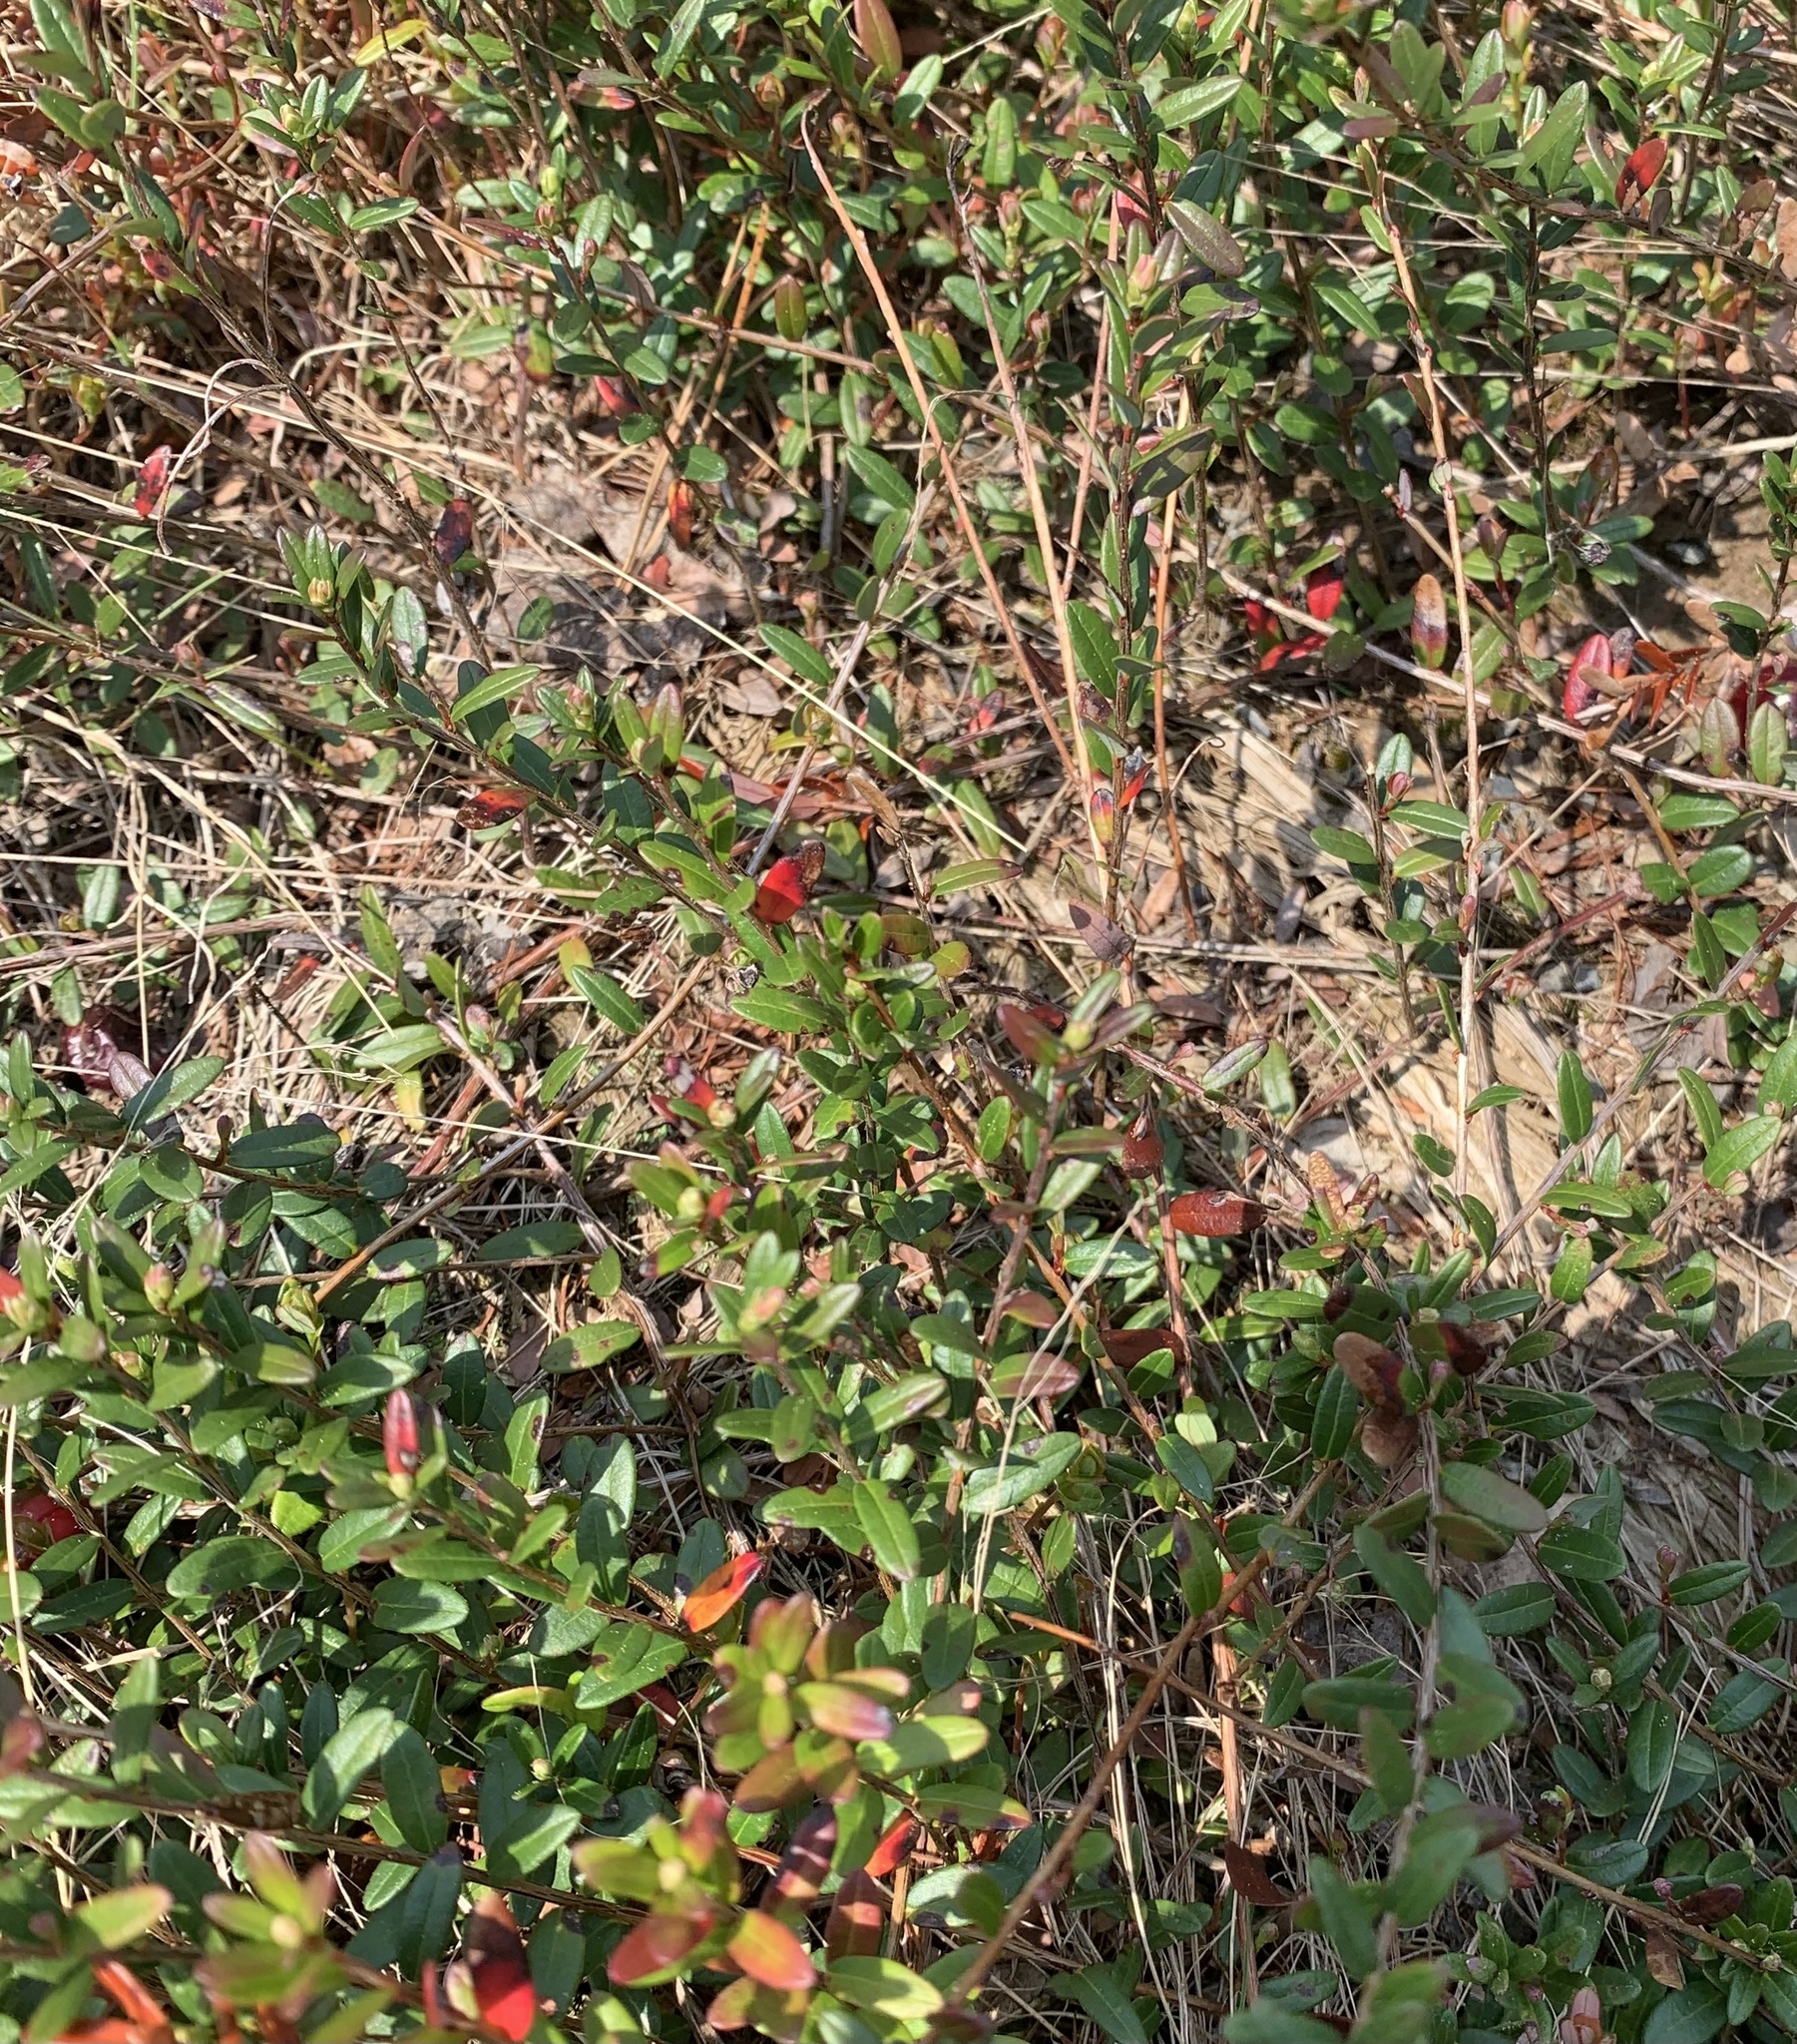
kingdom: Plantae
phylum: Tracheophyta
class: Magnoliopsida
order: Ericales
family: Ericaceae
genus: Vaccinium
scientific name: Vaccinium macrocarpon
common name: American cranberry
